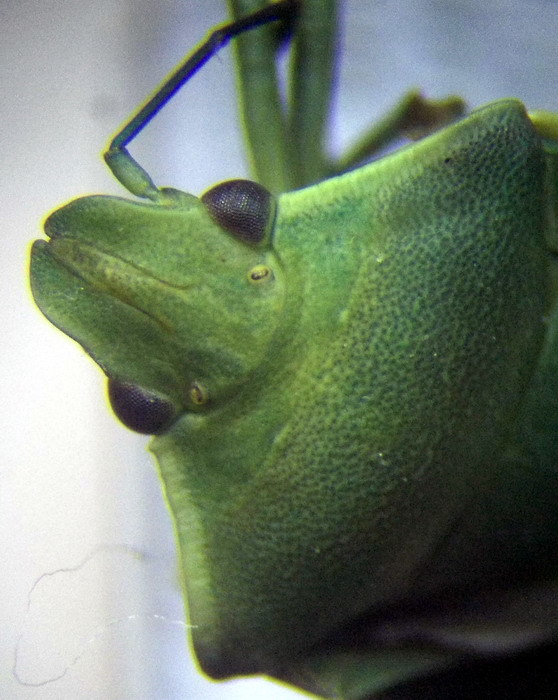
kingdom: Animalia
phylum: Arthropoda
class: Insecta
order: Hemiptera
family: Pentatomidae
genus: Brachynema
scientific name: Brachynema germarii
